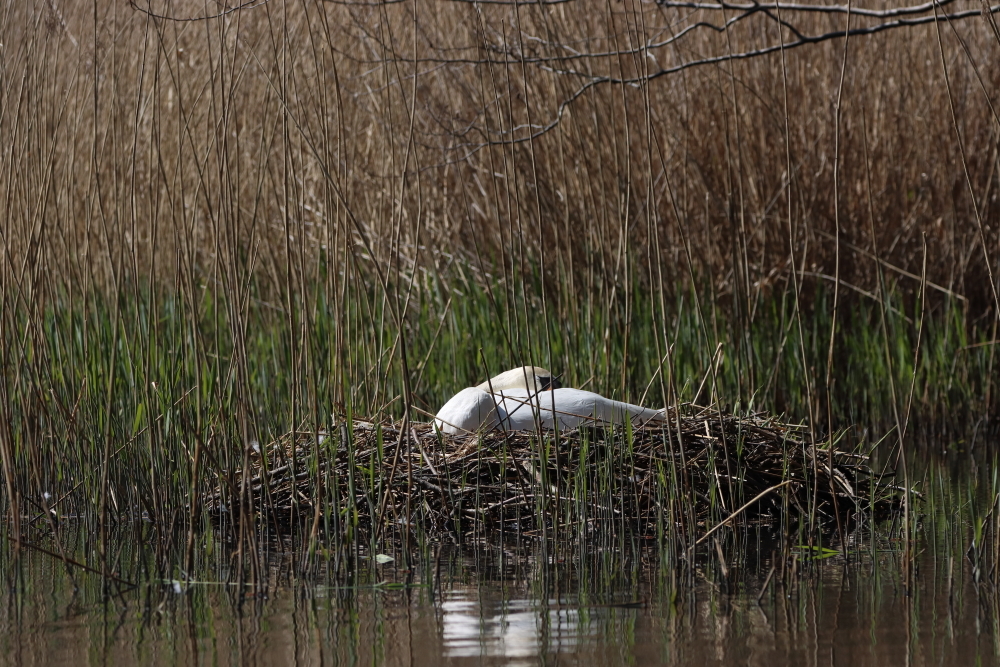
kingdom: Animalia
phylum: Chordata
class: Aves
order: Anseriformes
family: Anatidae
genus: Cygnus
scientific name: Cygnus olor
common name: Mute swan
